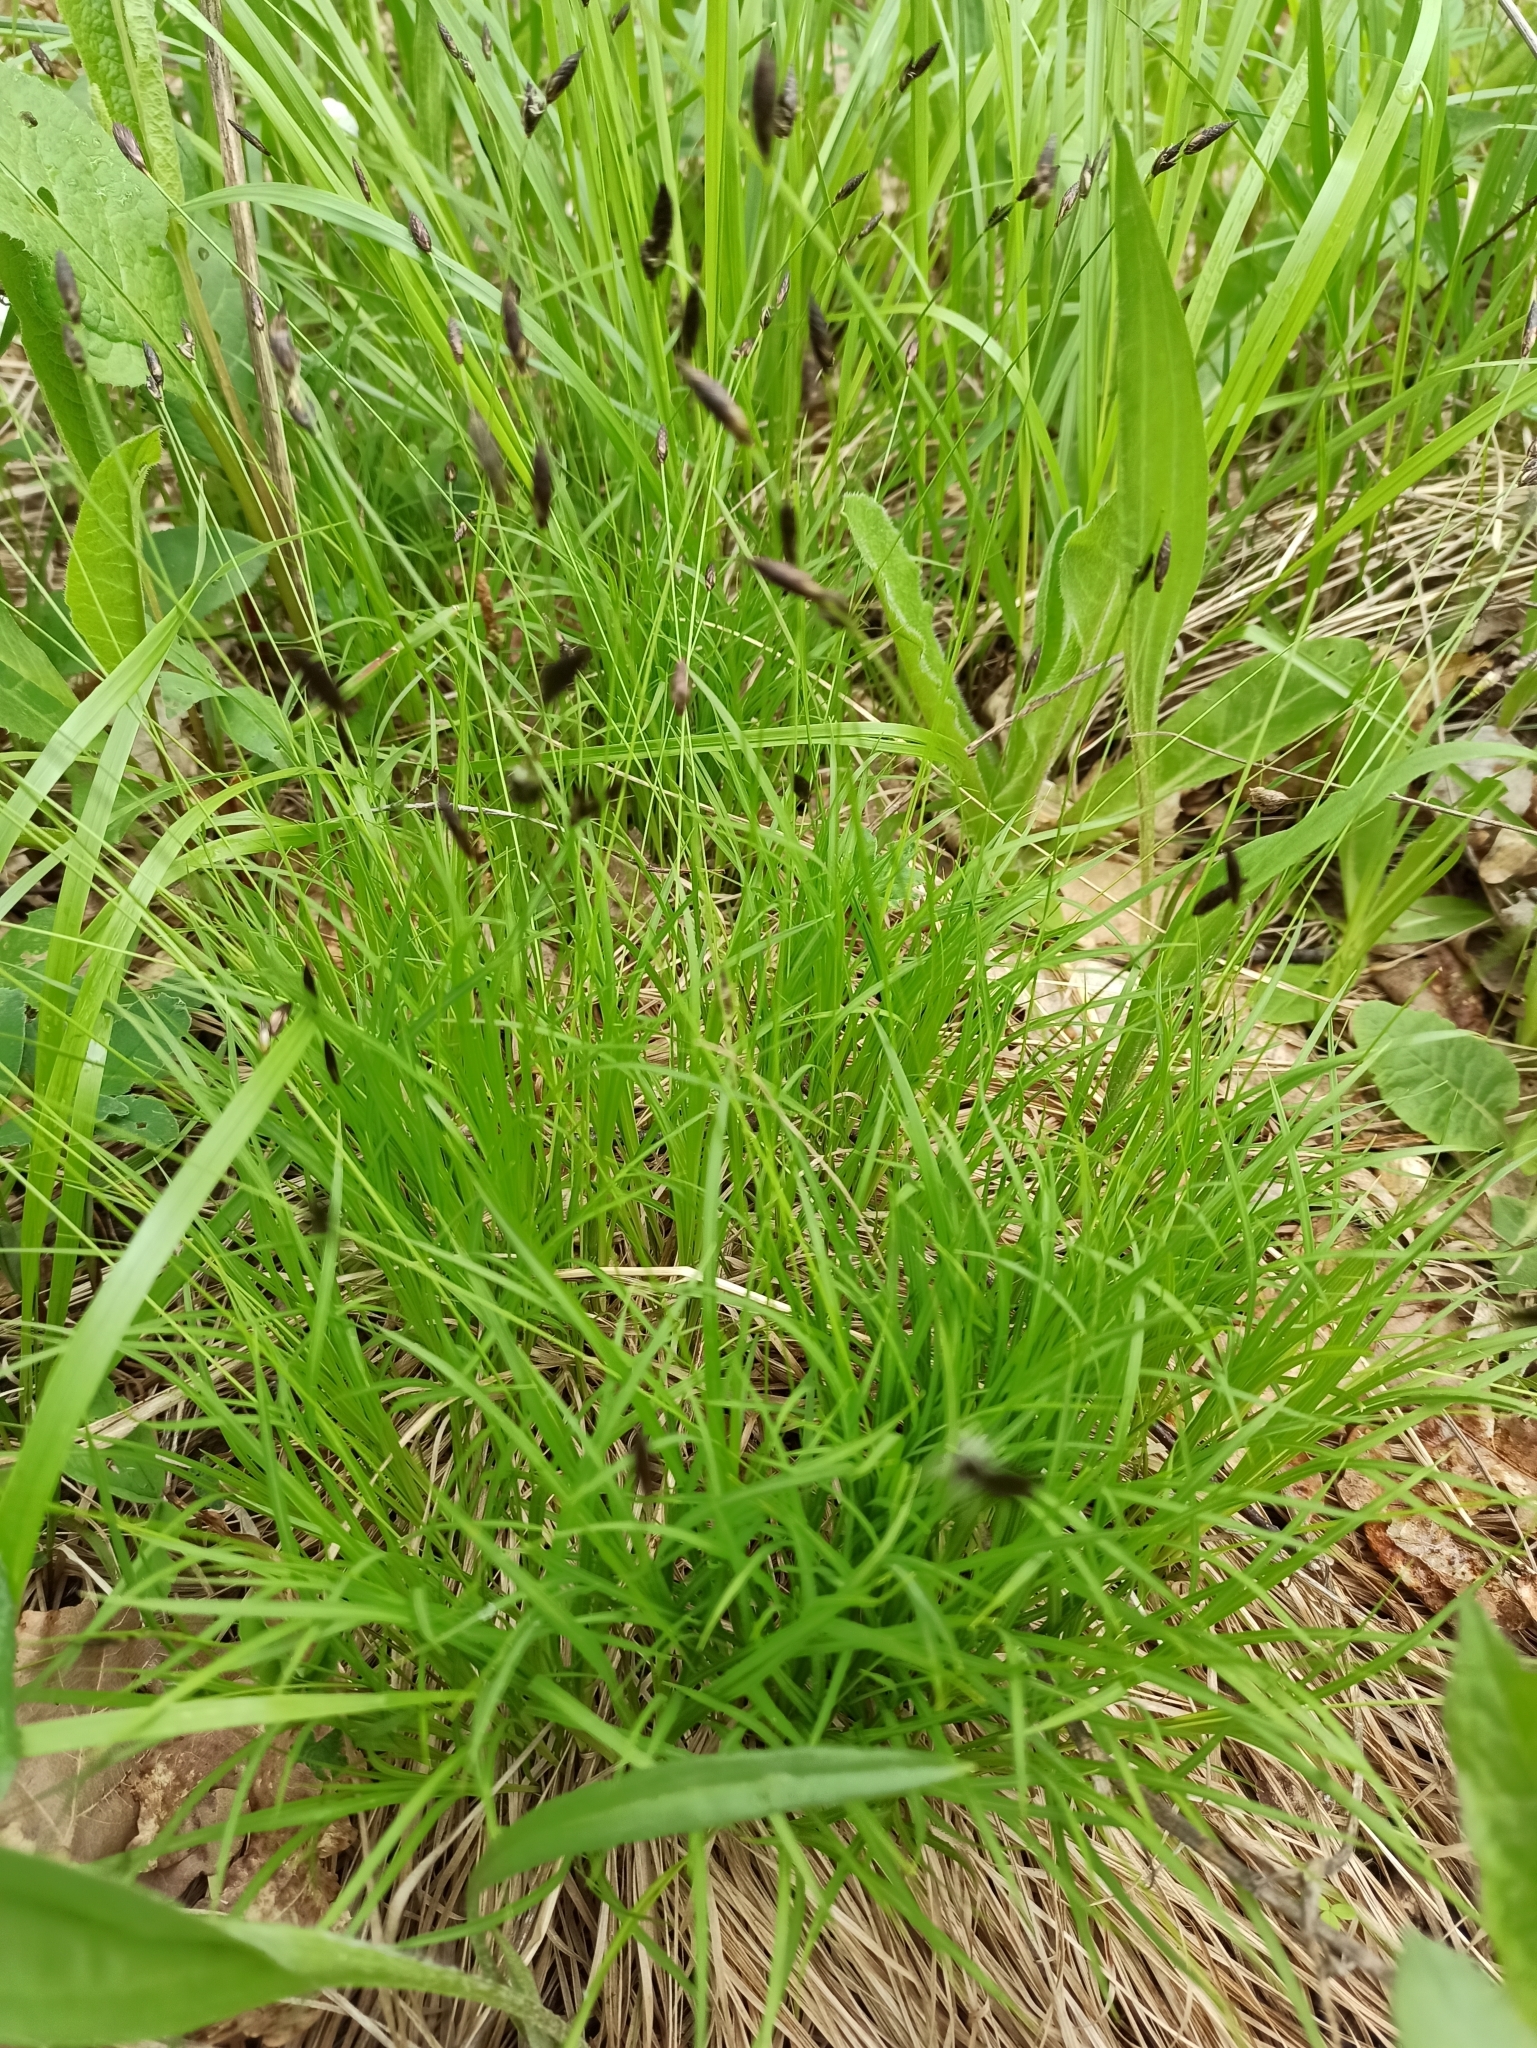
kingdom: Plantae
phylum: Tracheophyta
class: Liliopsida
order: Poales
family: Cyperaceae
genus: Carex
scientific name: Carex montana
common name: Soft-leaved sedge
